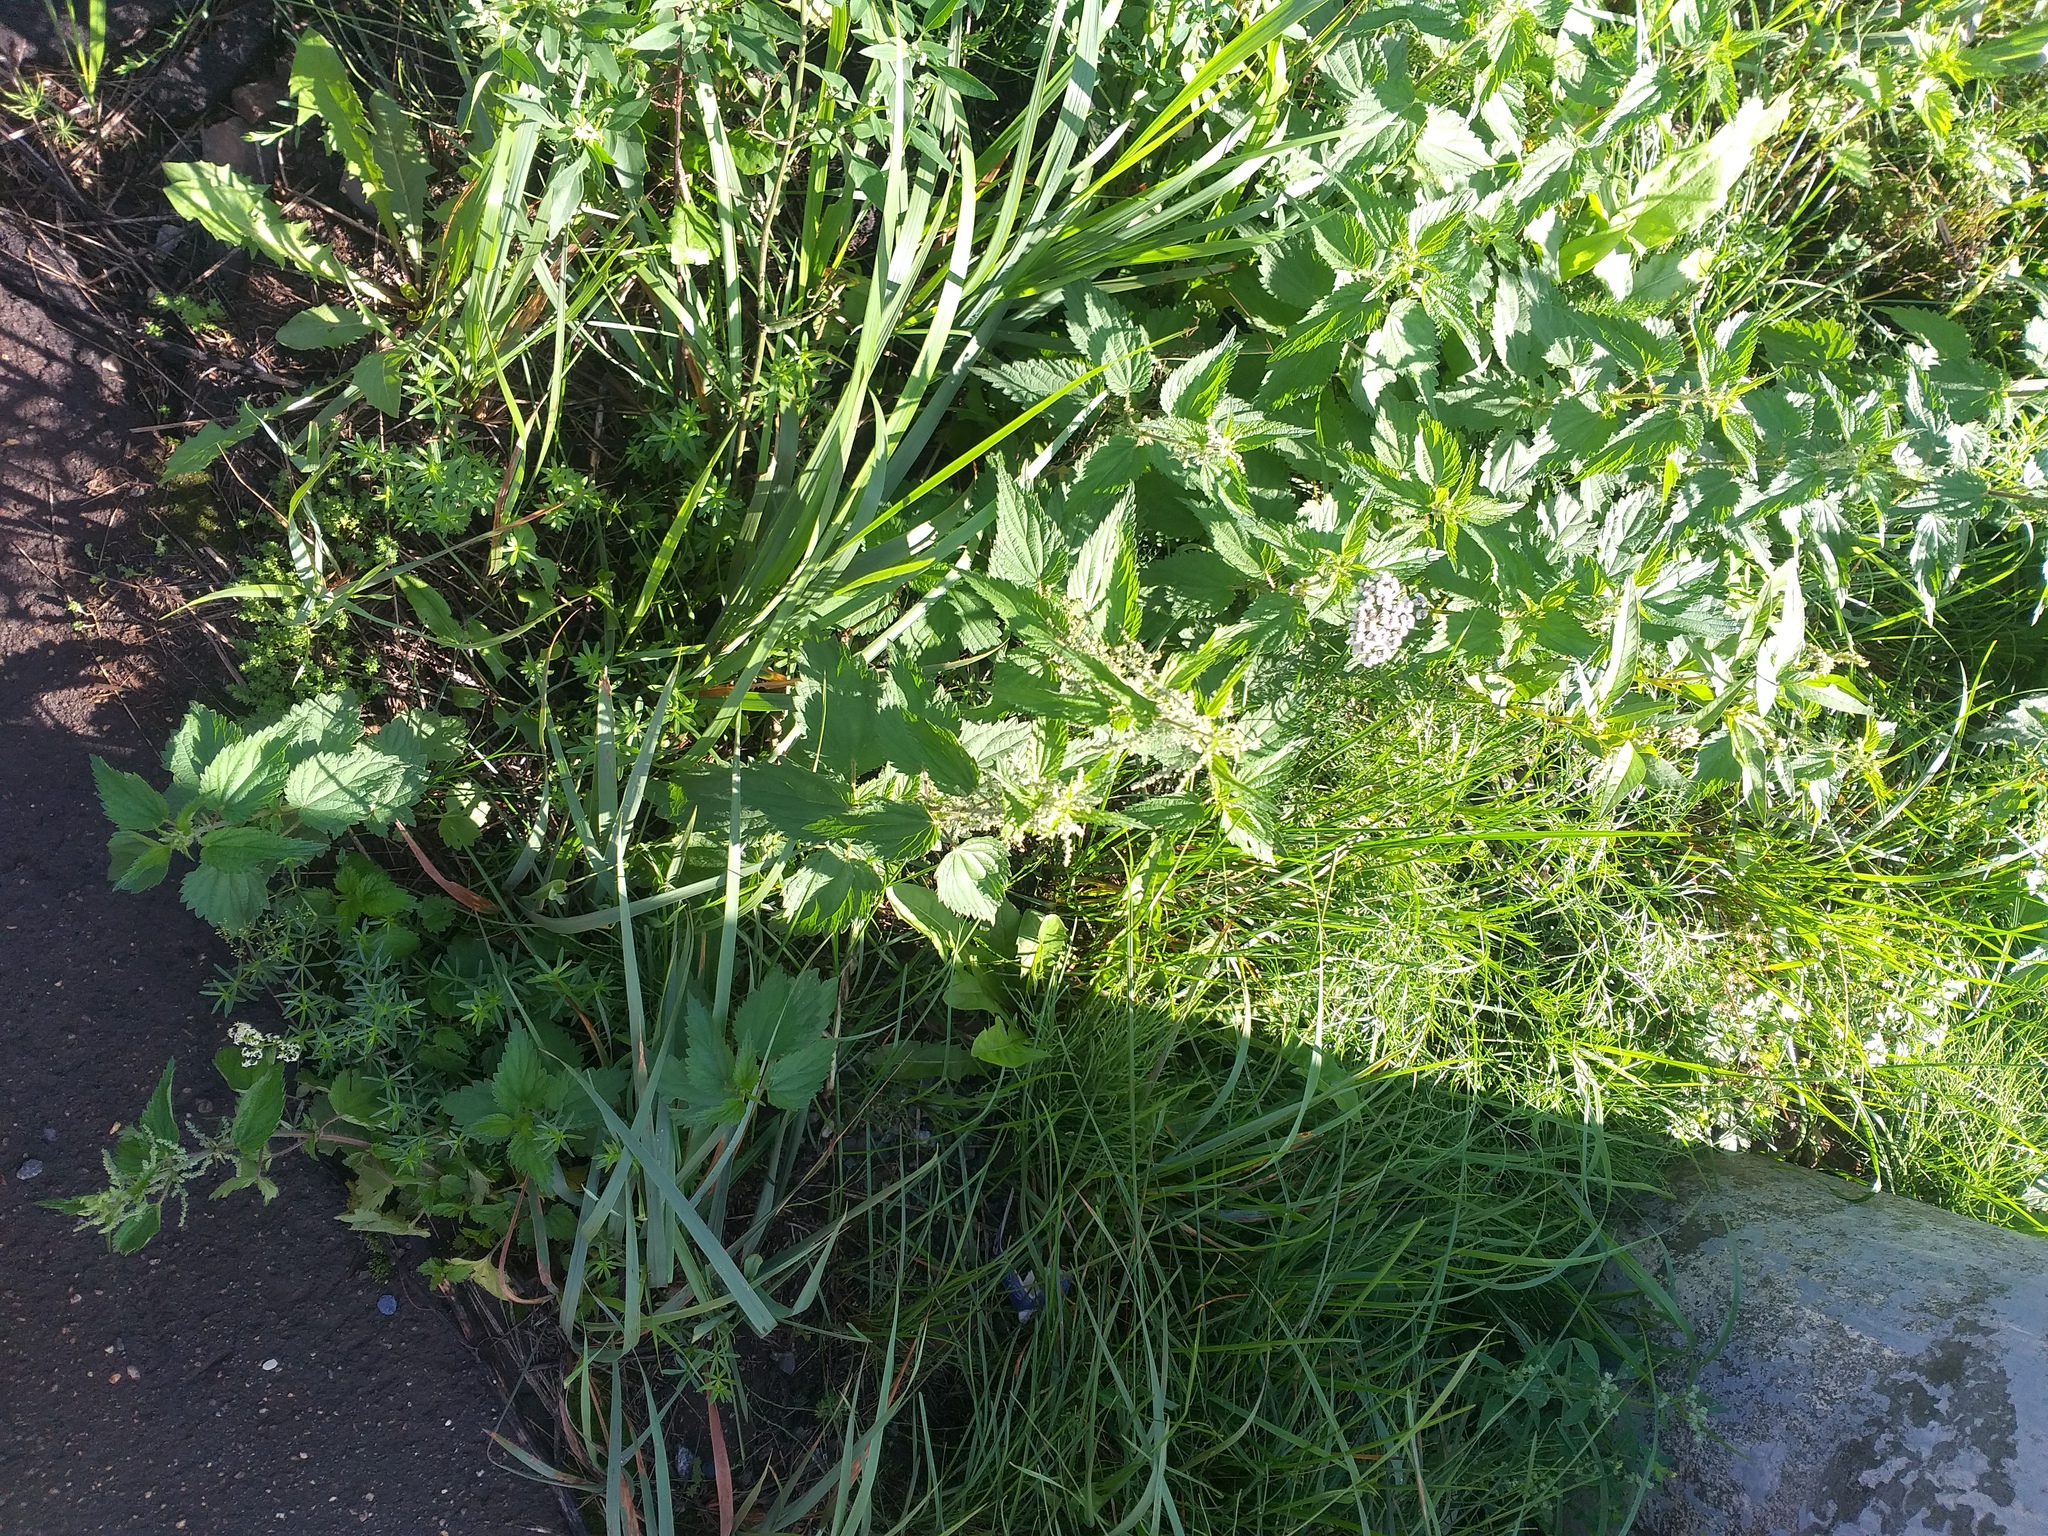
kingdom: Plantae
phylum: Tracheophyta
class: Magnoliopsida
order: Rosales
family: Urticaceae
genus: Urtica
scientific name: Urtica dioica
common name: Common nettle
